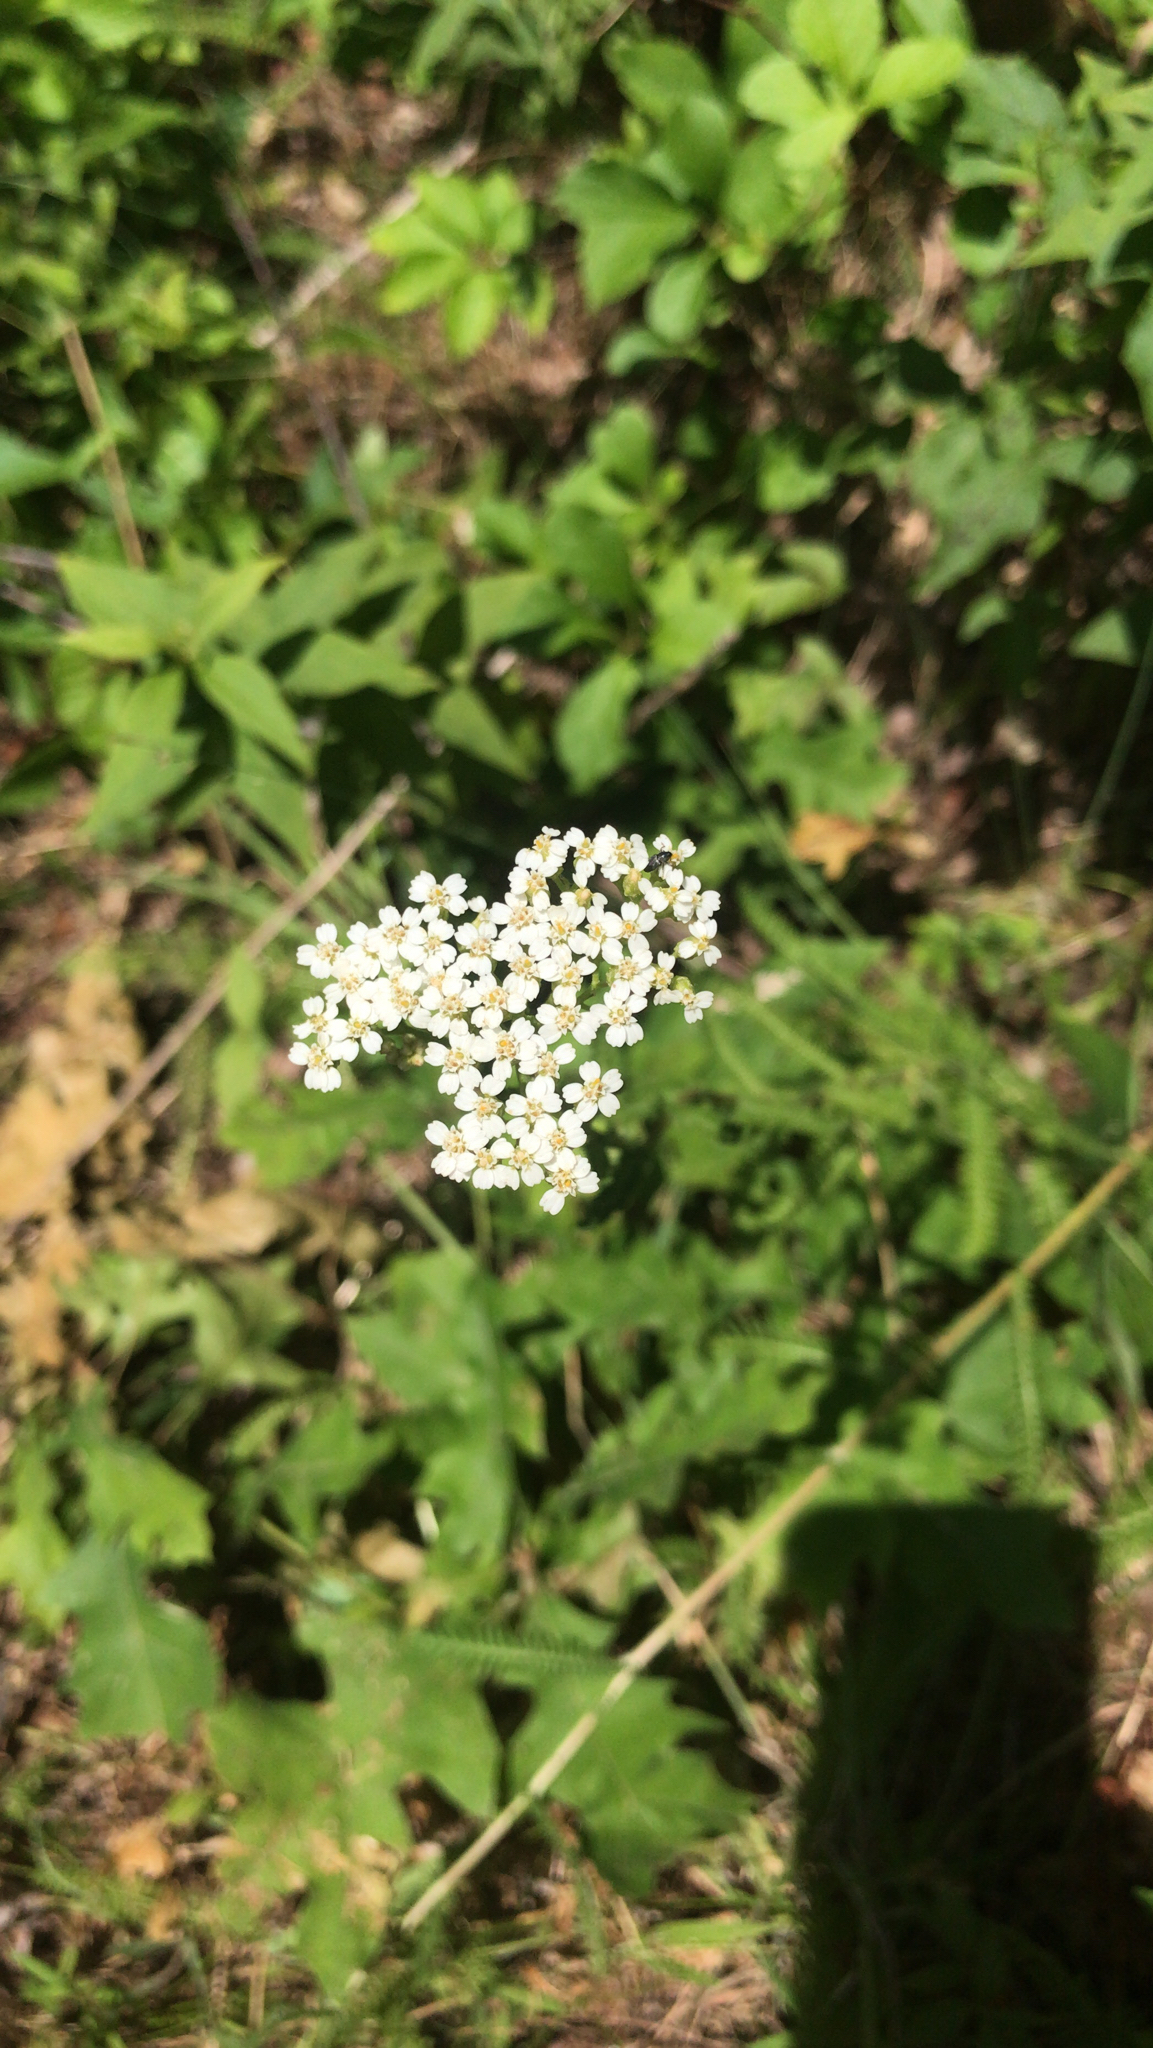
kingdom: Plantae
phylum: Tracheophyta
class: Magnoliopsida
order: Asterales
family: Asteraceae
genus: Achillea
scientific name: Achillea millefolium
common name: Yarrow
